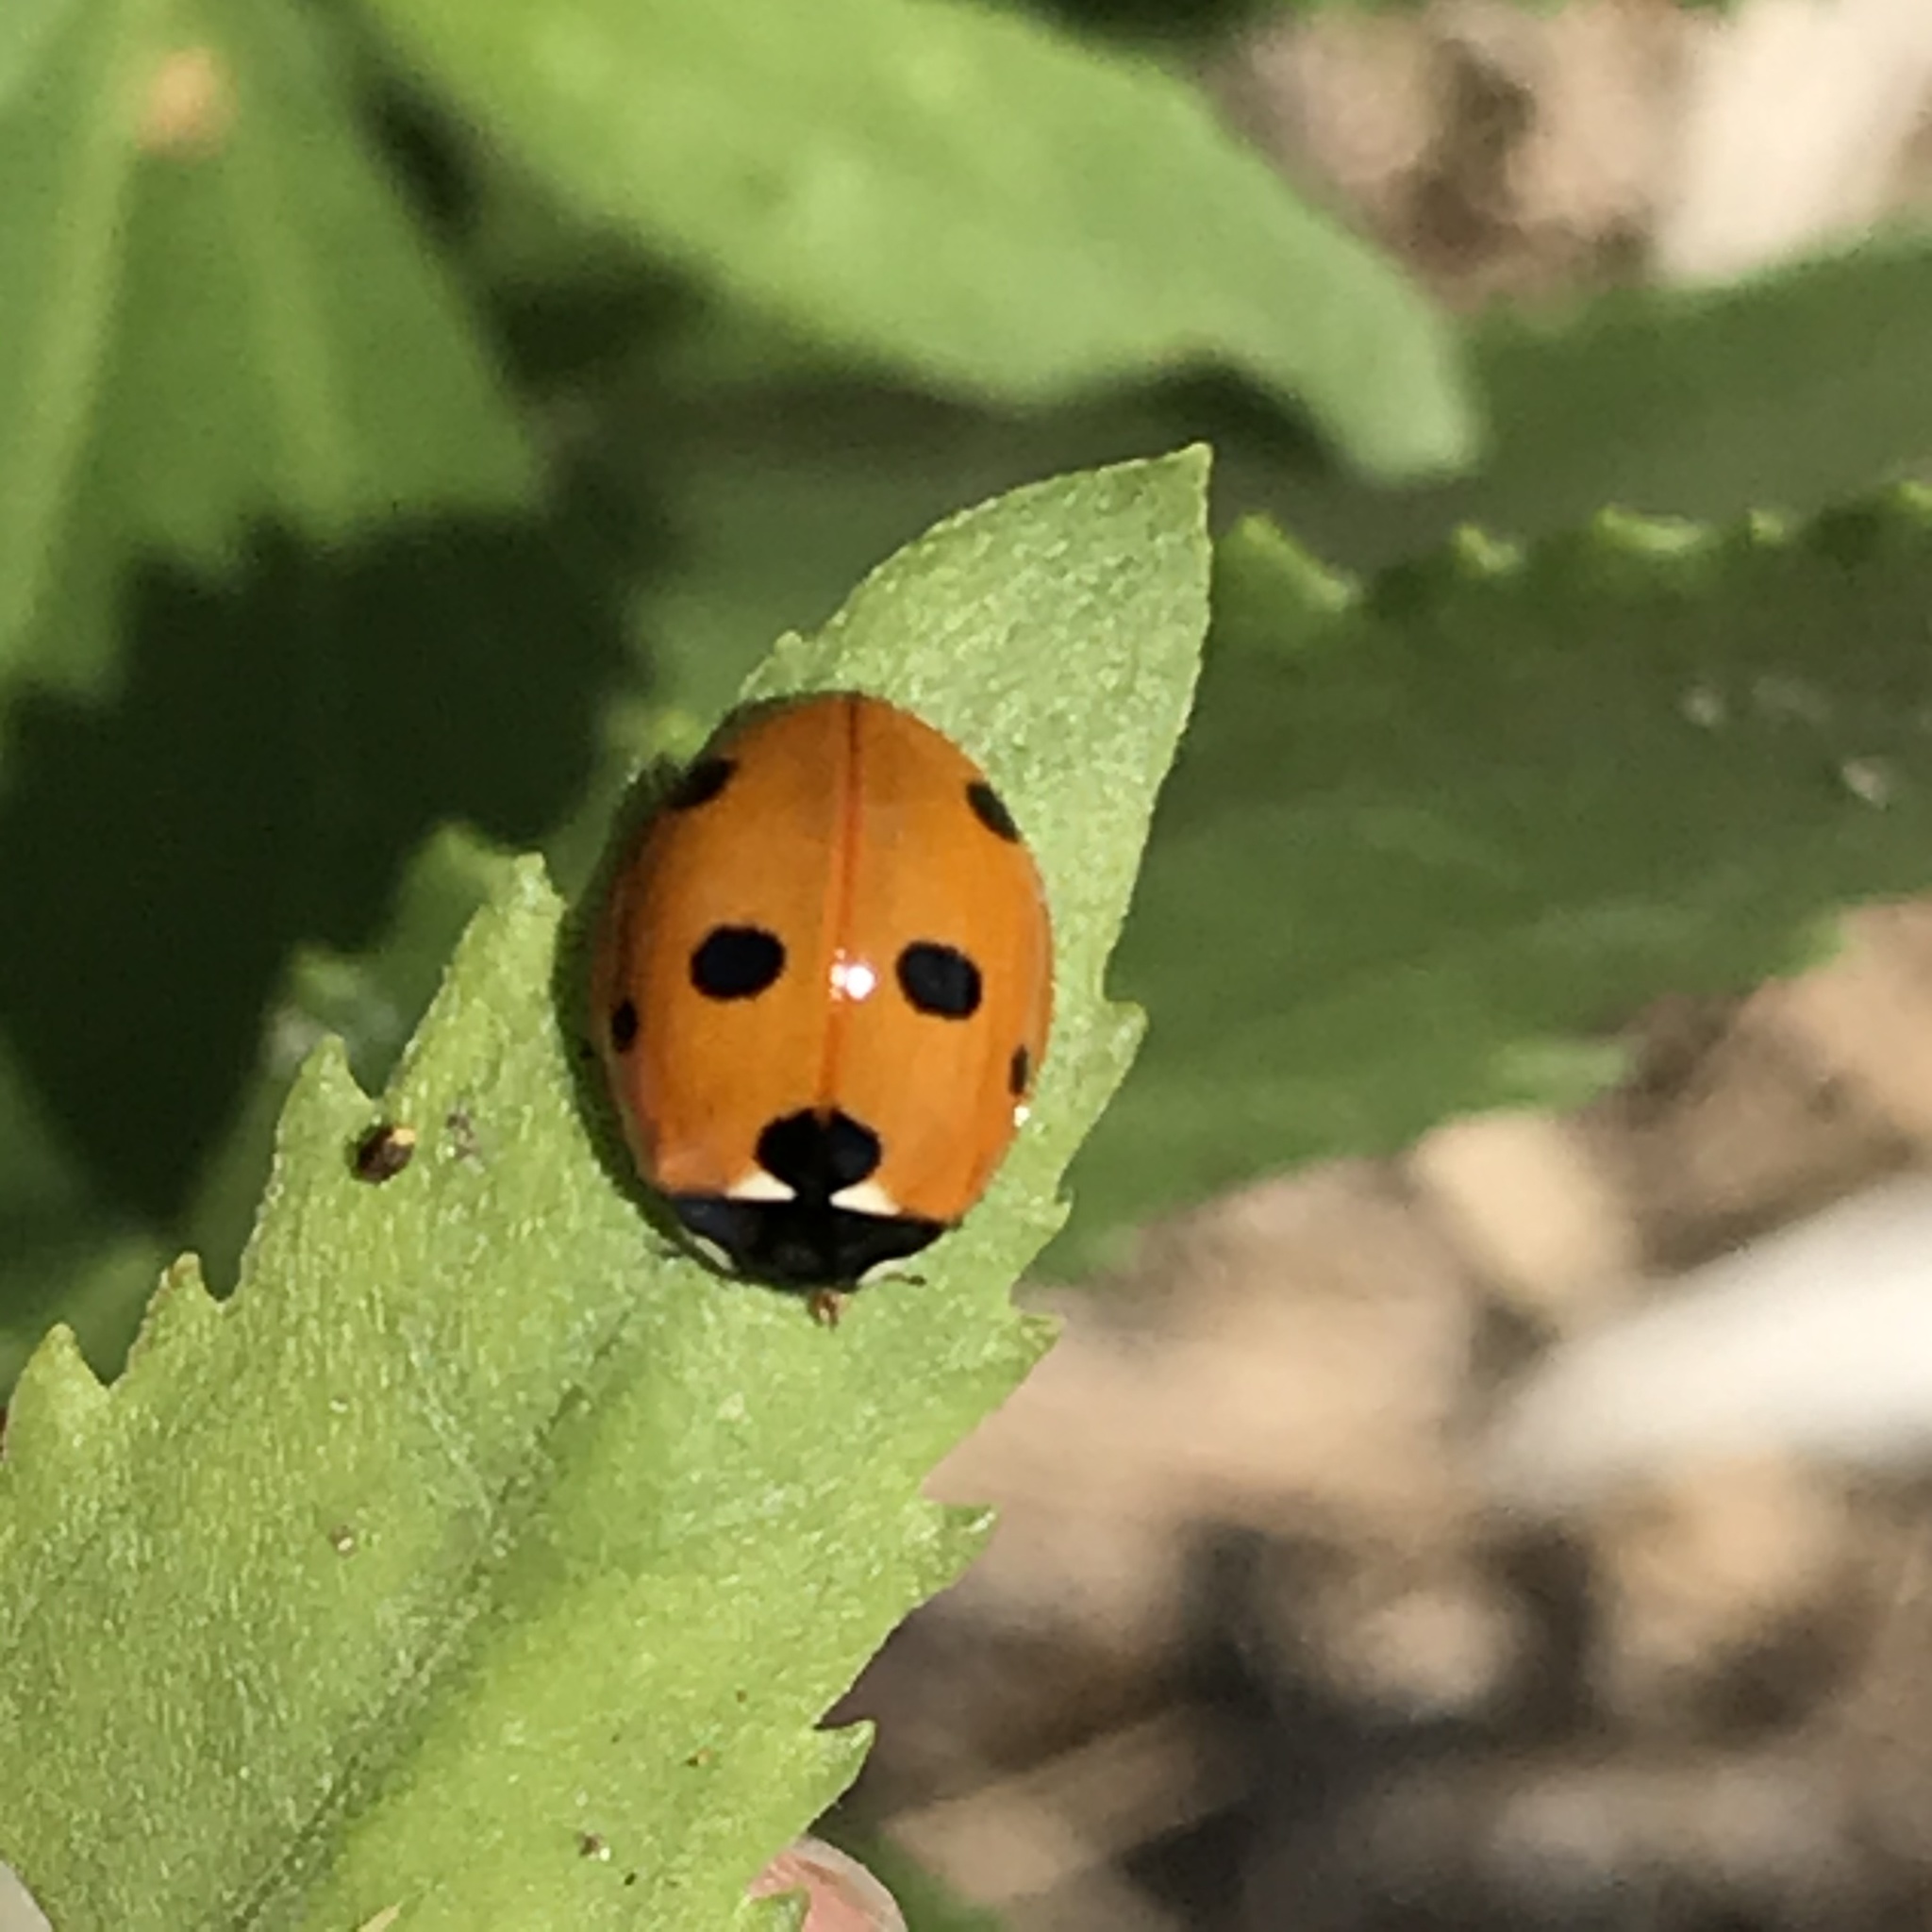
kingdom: Animalia
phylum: Arthropoda
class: Insecta
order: Coleoptera
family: Coccinellidae
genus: Coccinella
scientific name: Coccinella septempunctata
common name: Sevenspotted lady beetle
